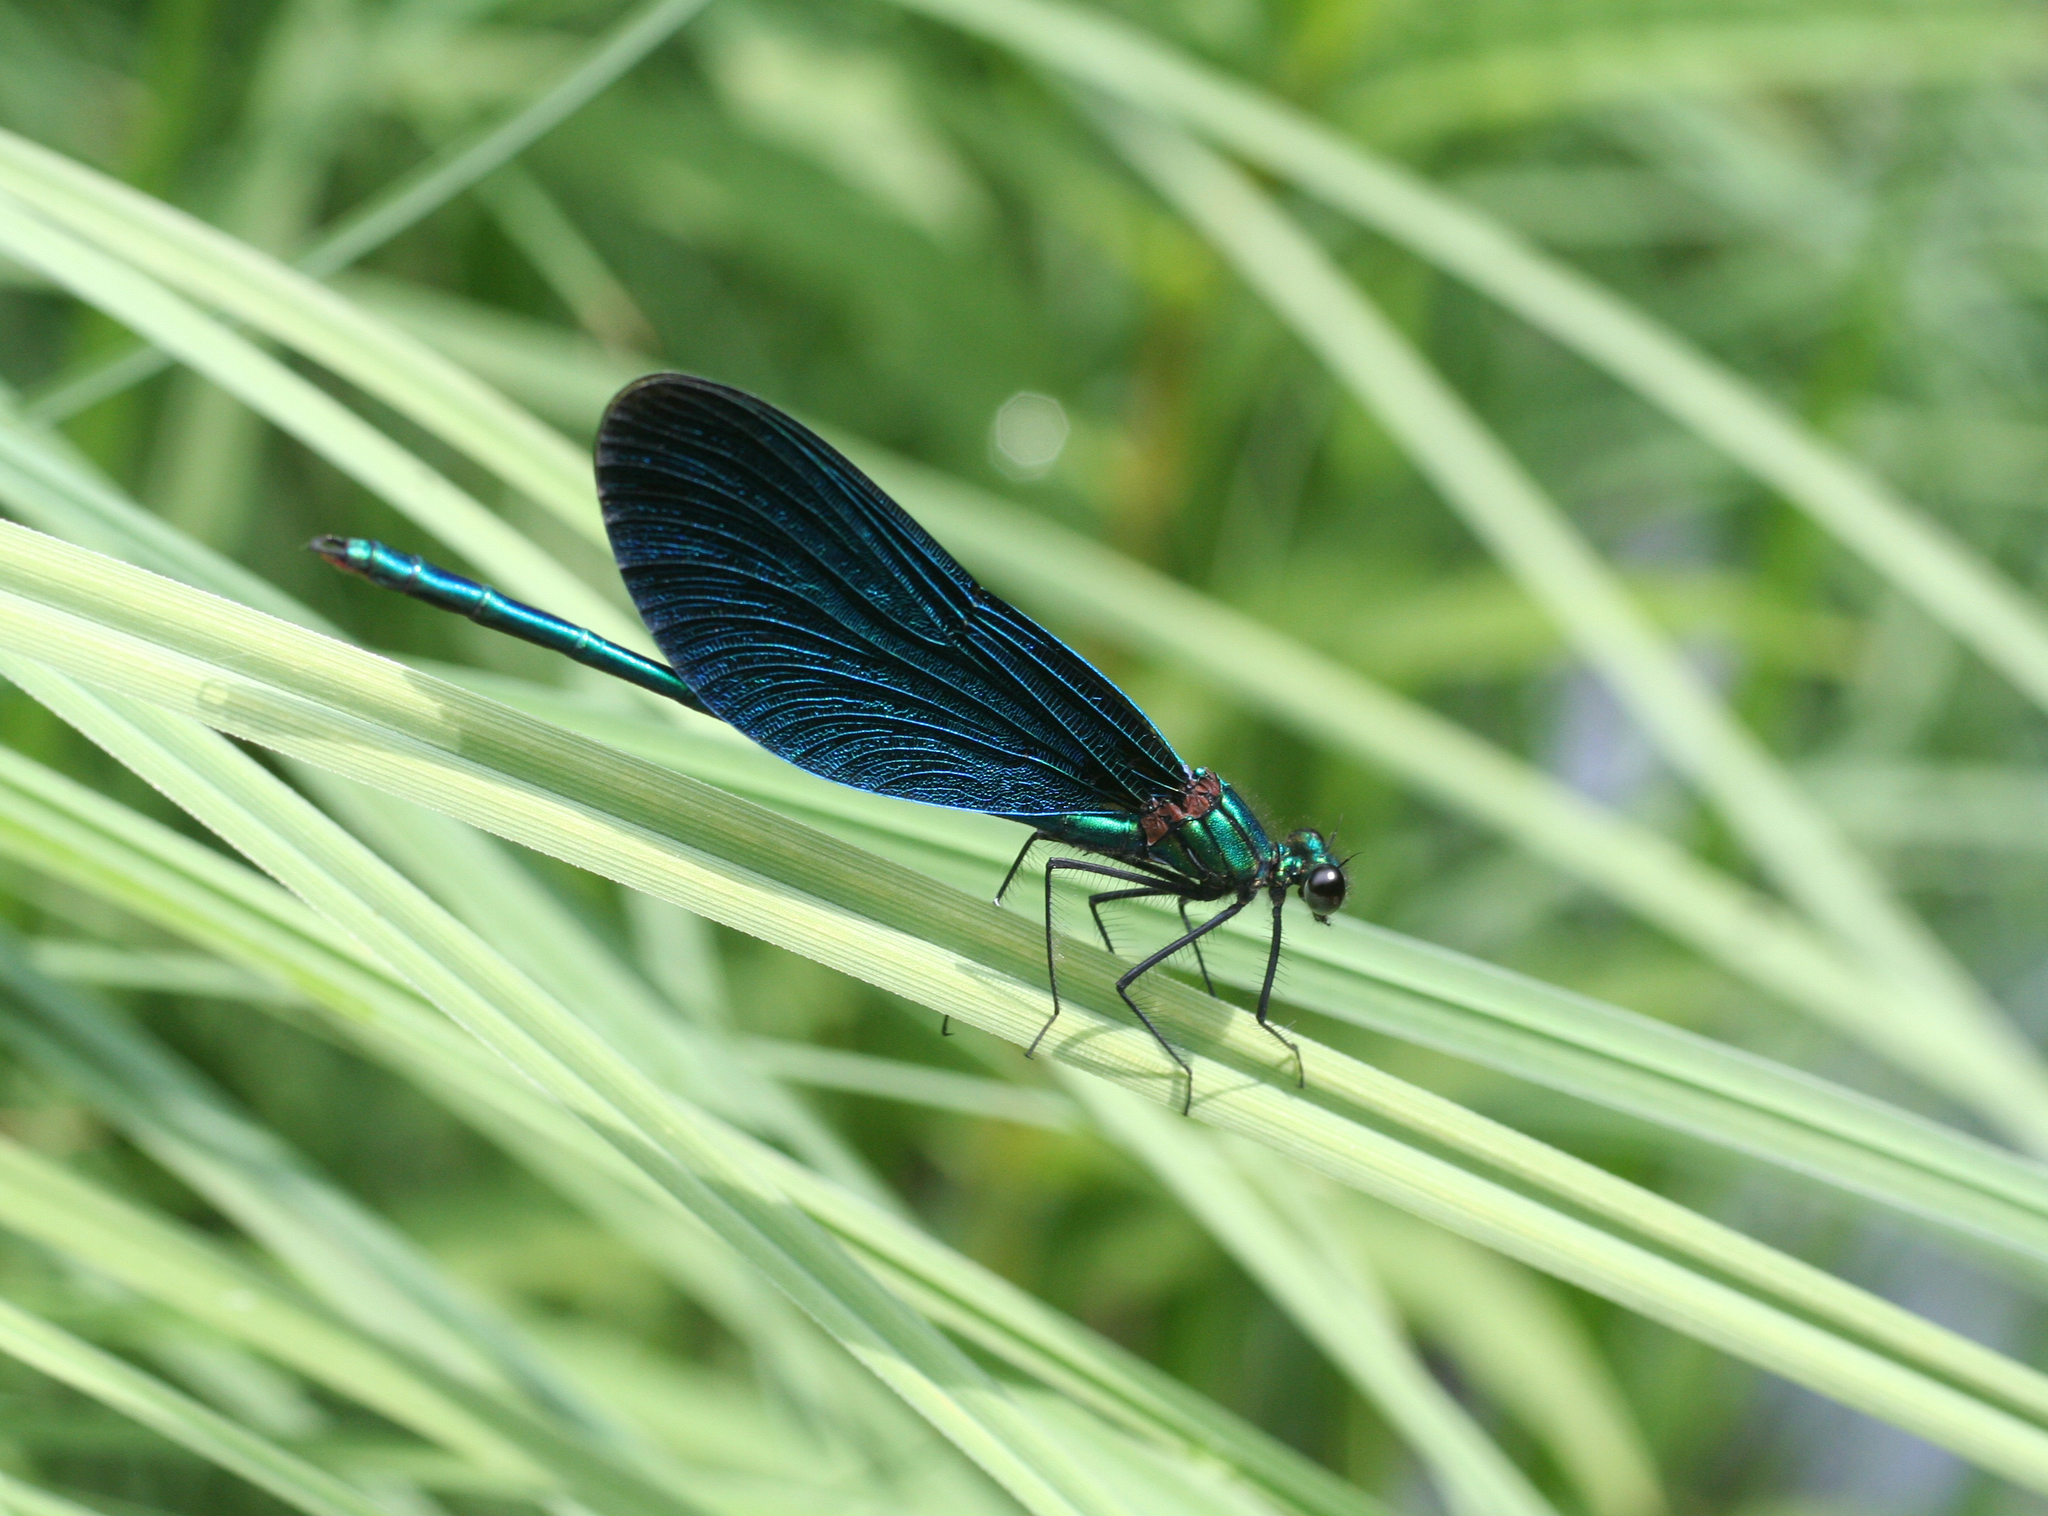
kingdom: Animalia
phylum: Arthropoda
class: Insecta
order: Odonata
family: Calopterygidae
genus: Calopteryx
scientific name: Calopteryx virgo
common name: Beautiful demoiselle
